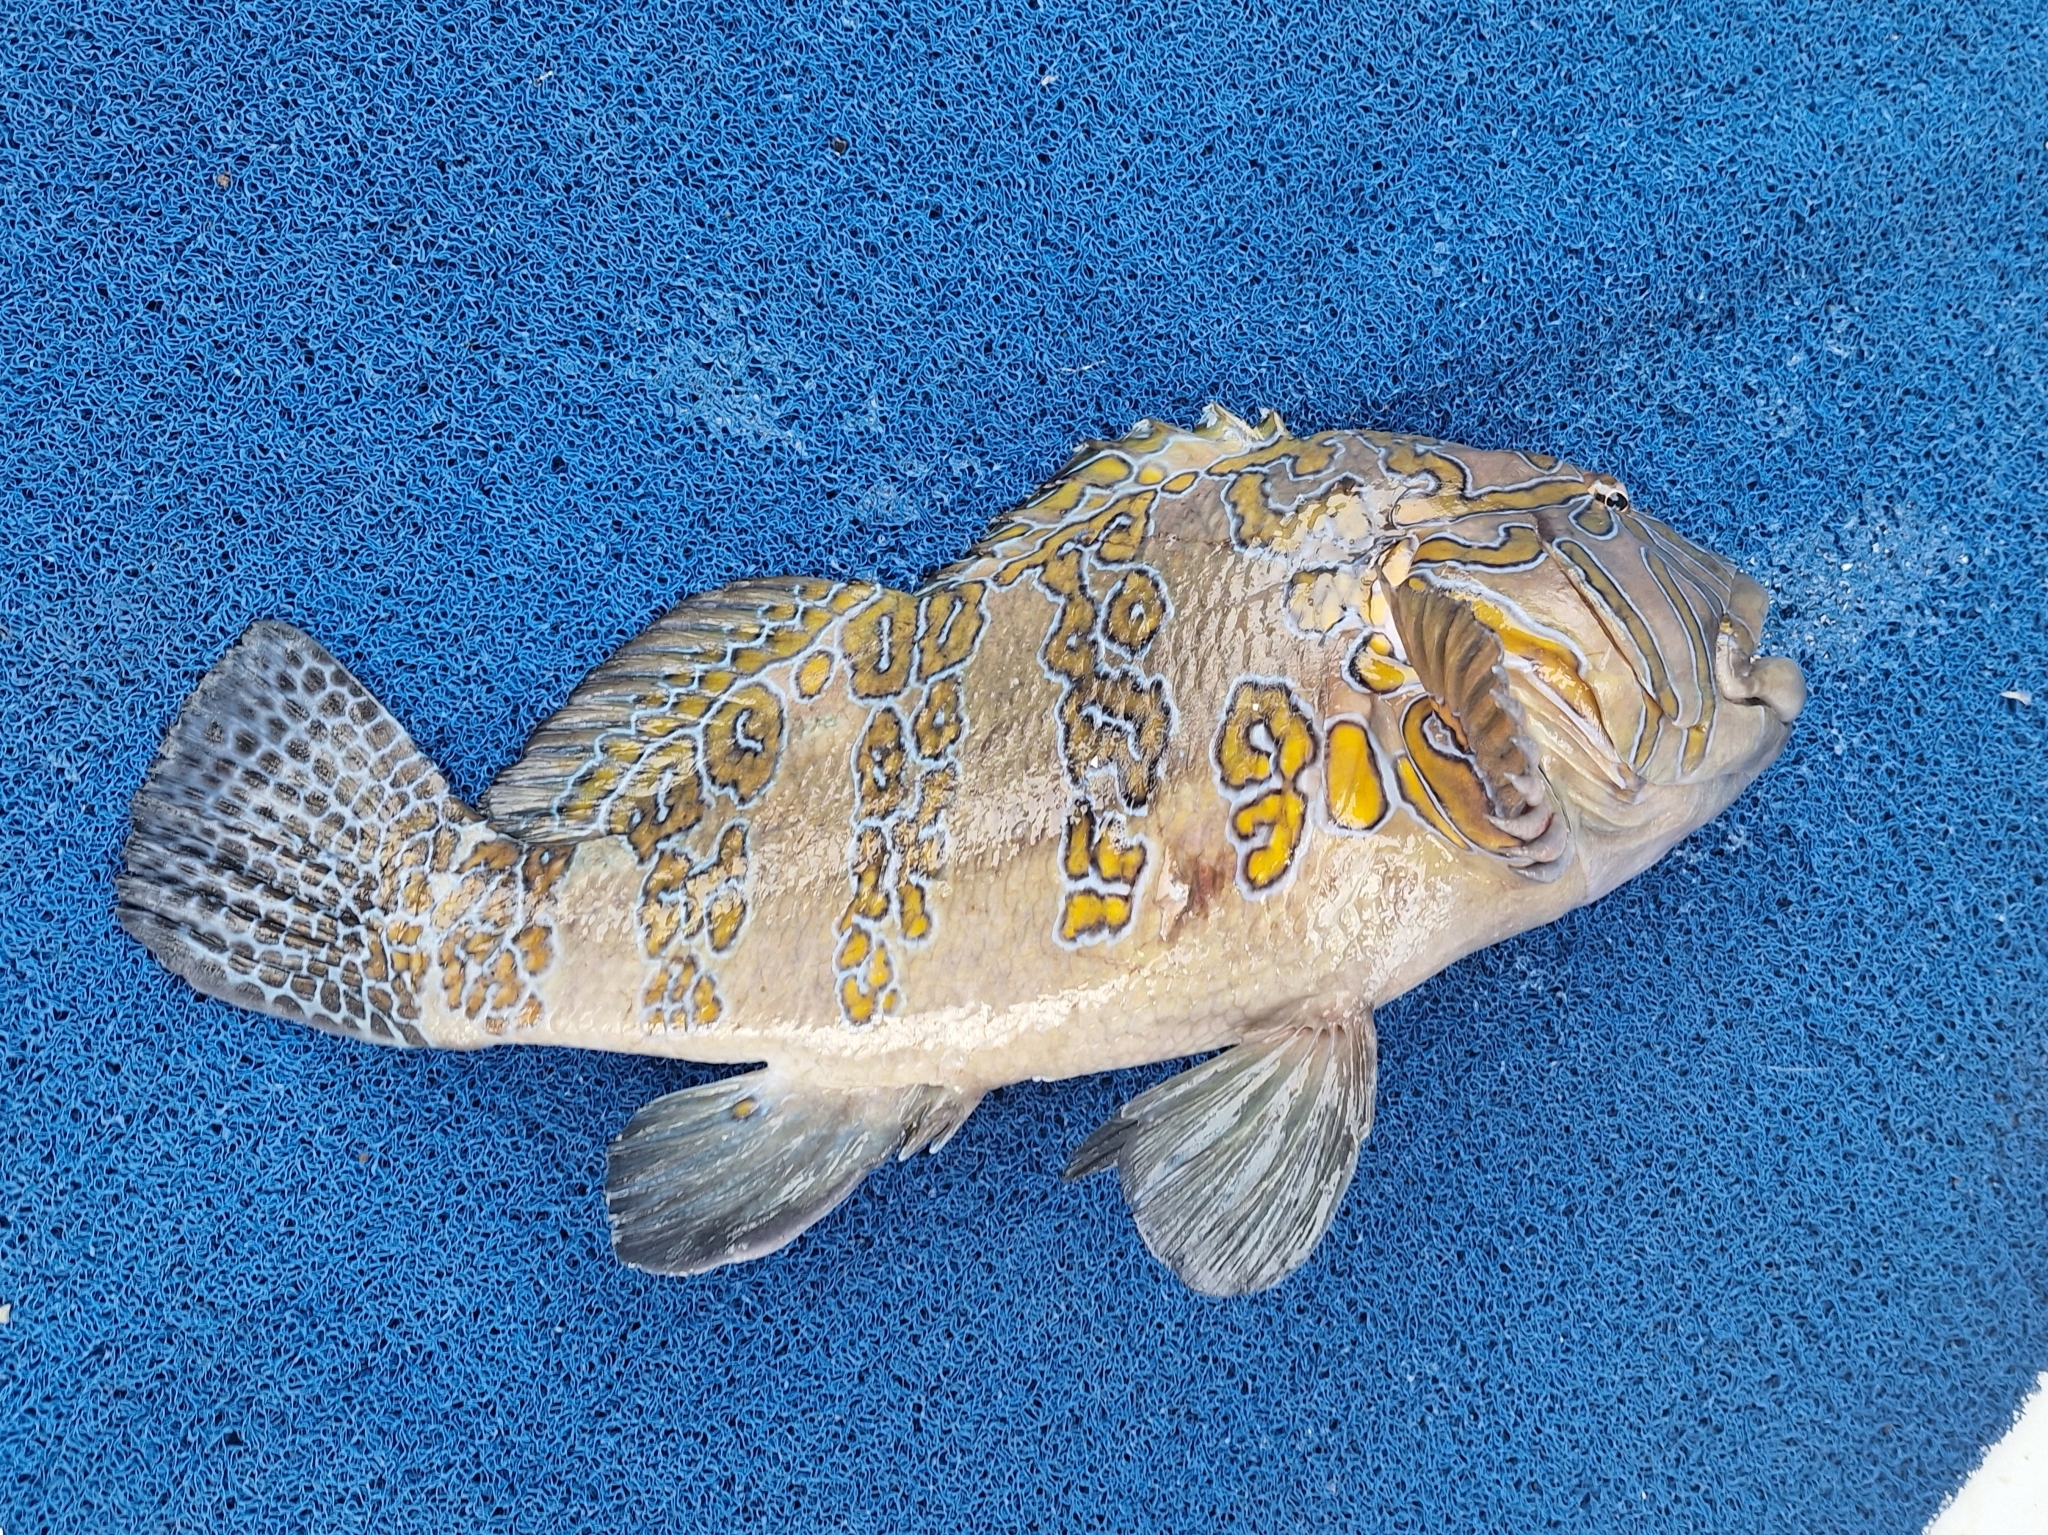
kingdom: Animalia
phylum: Chordata
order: Perciformes
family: Cirrhitidae
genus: Cirrhitus
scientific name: Cirrhitus rivulatus
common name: Giant hawkfish
